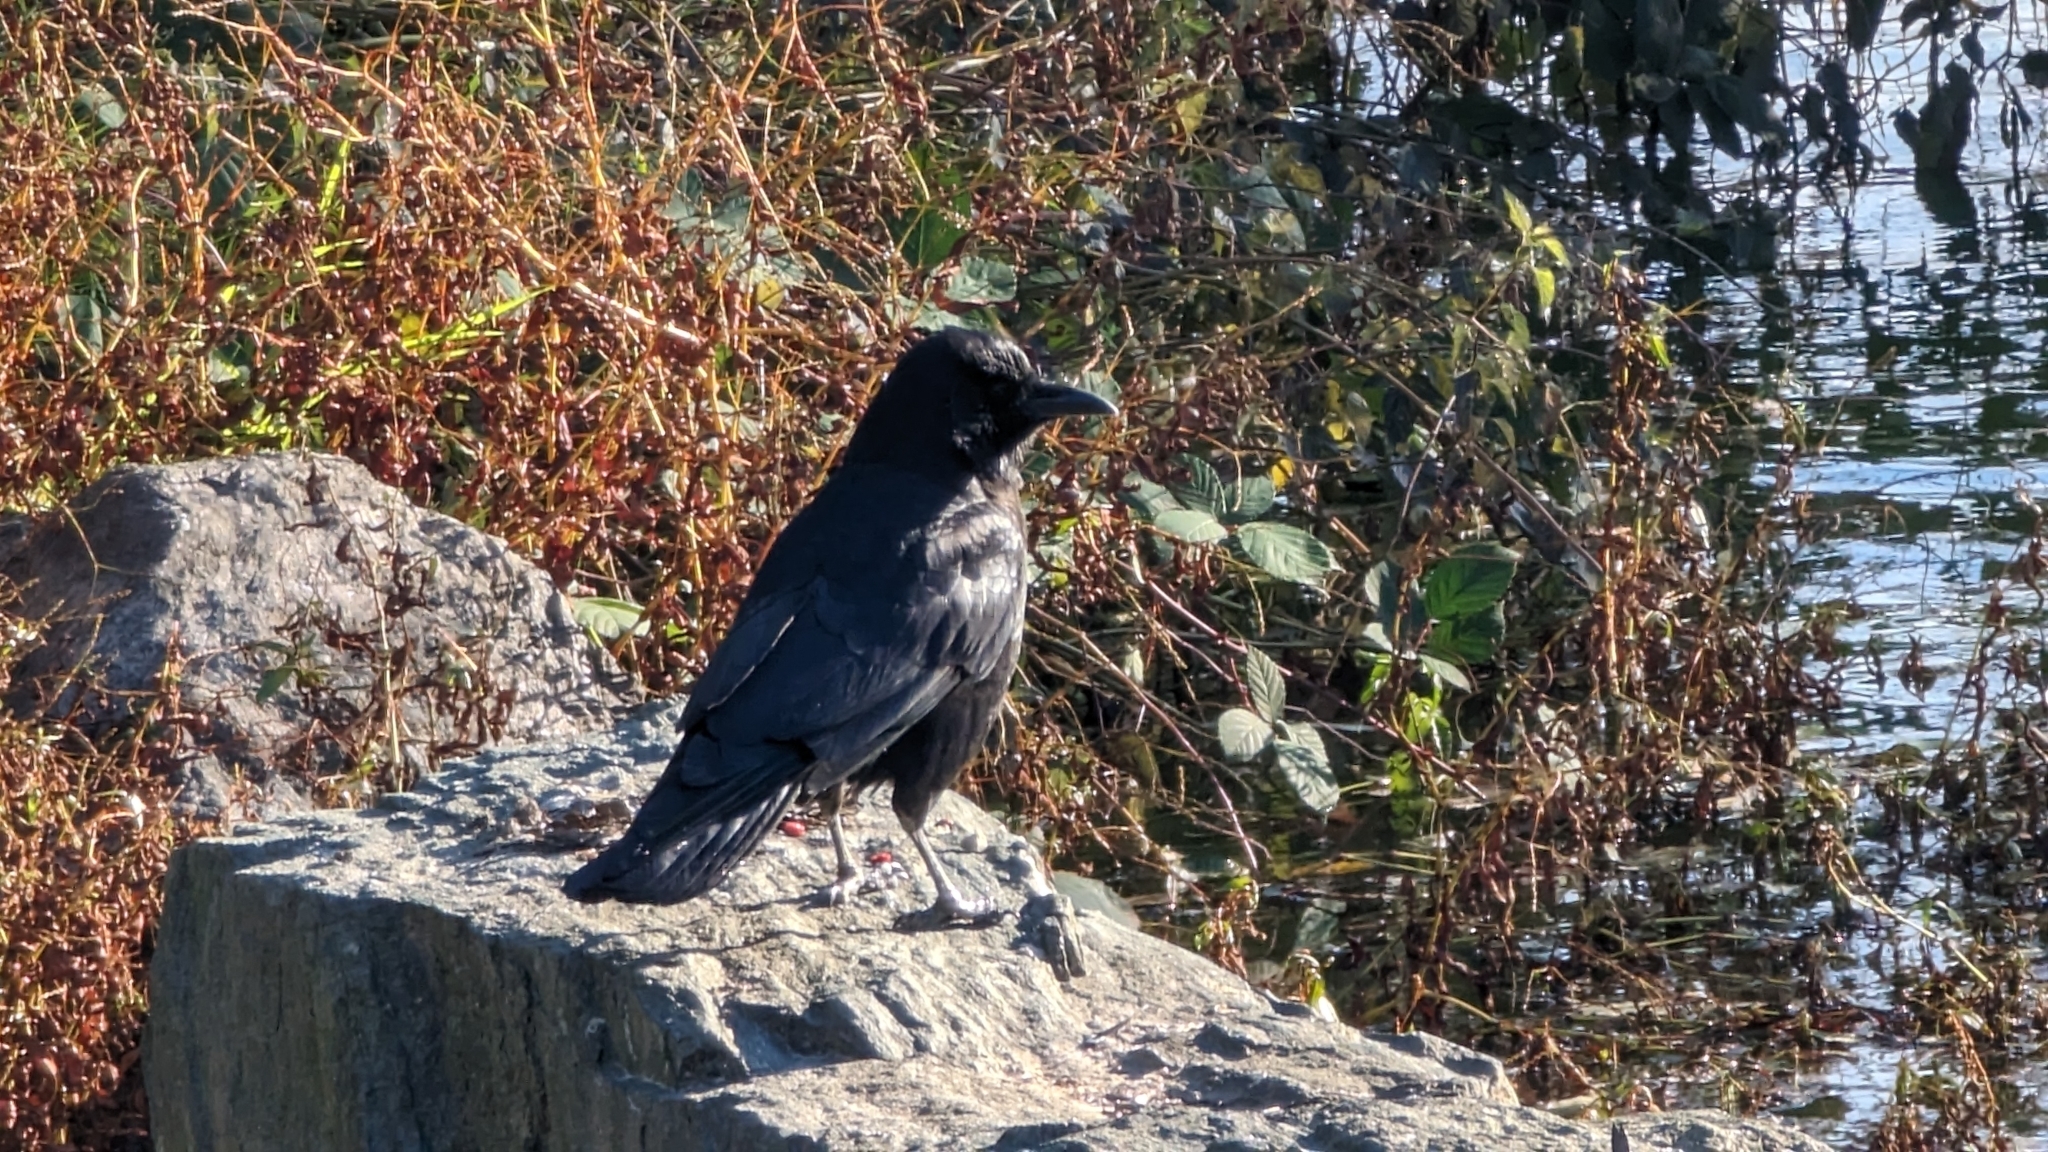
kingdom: Animalia
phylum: Chordata
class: Aves
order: Passeriformes
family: Corvidae
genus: Corvus
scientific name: Corvus brachyrhynchos
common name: American crow
